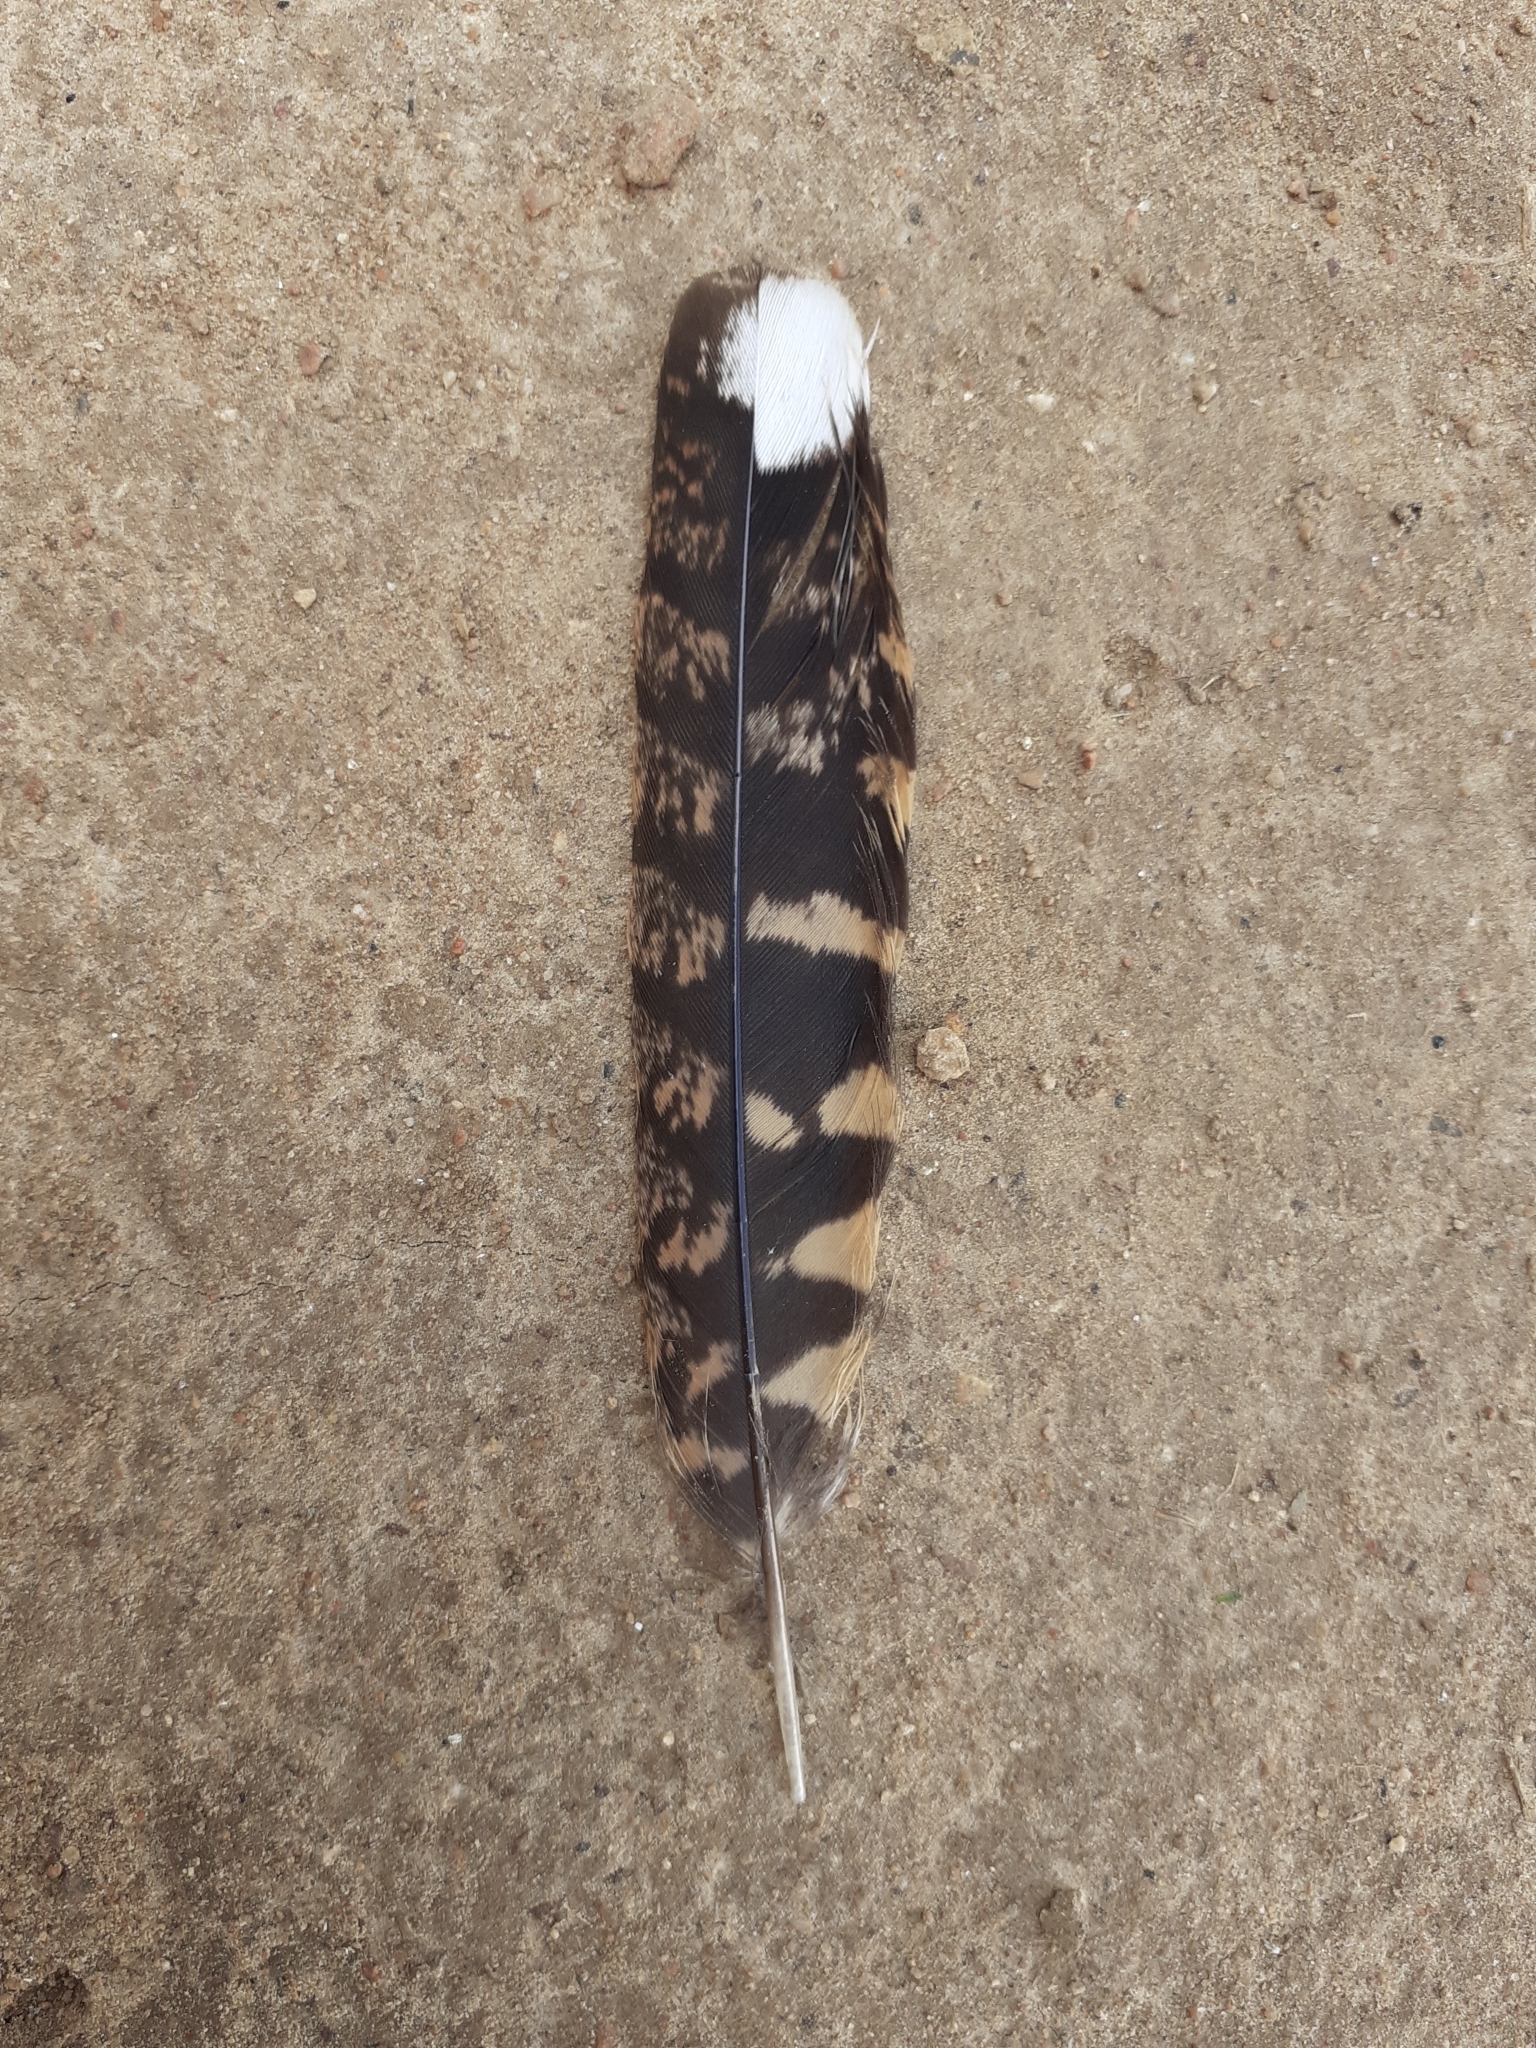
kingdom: Animalia
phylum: Chordata
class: Aves
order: Caprimulgiformes
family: Caprimulgidae
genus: Nyctidromus
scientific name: Nyctidromus albicollis
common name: Pauraque
